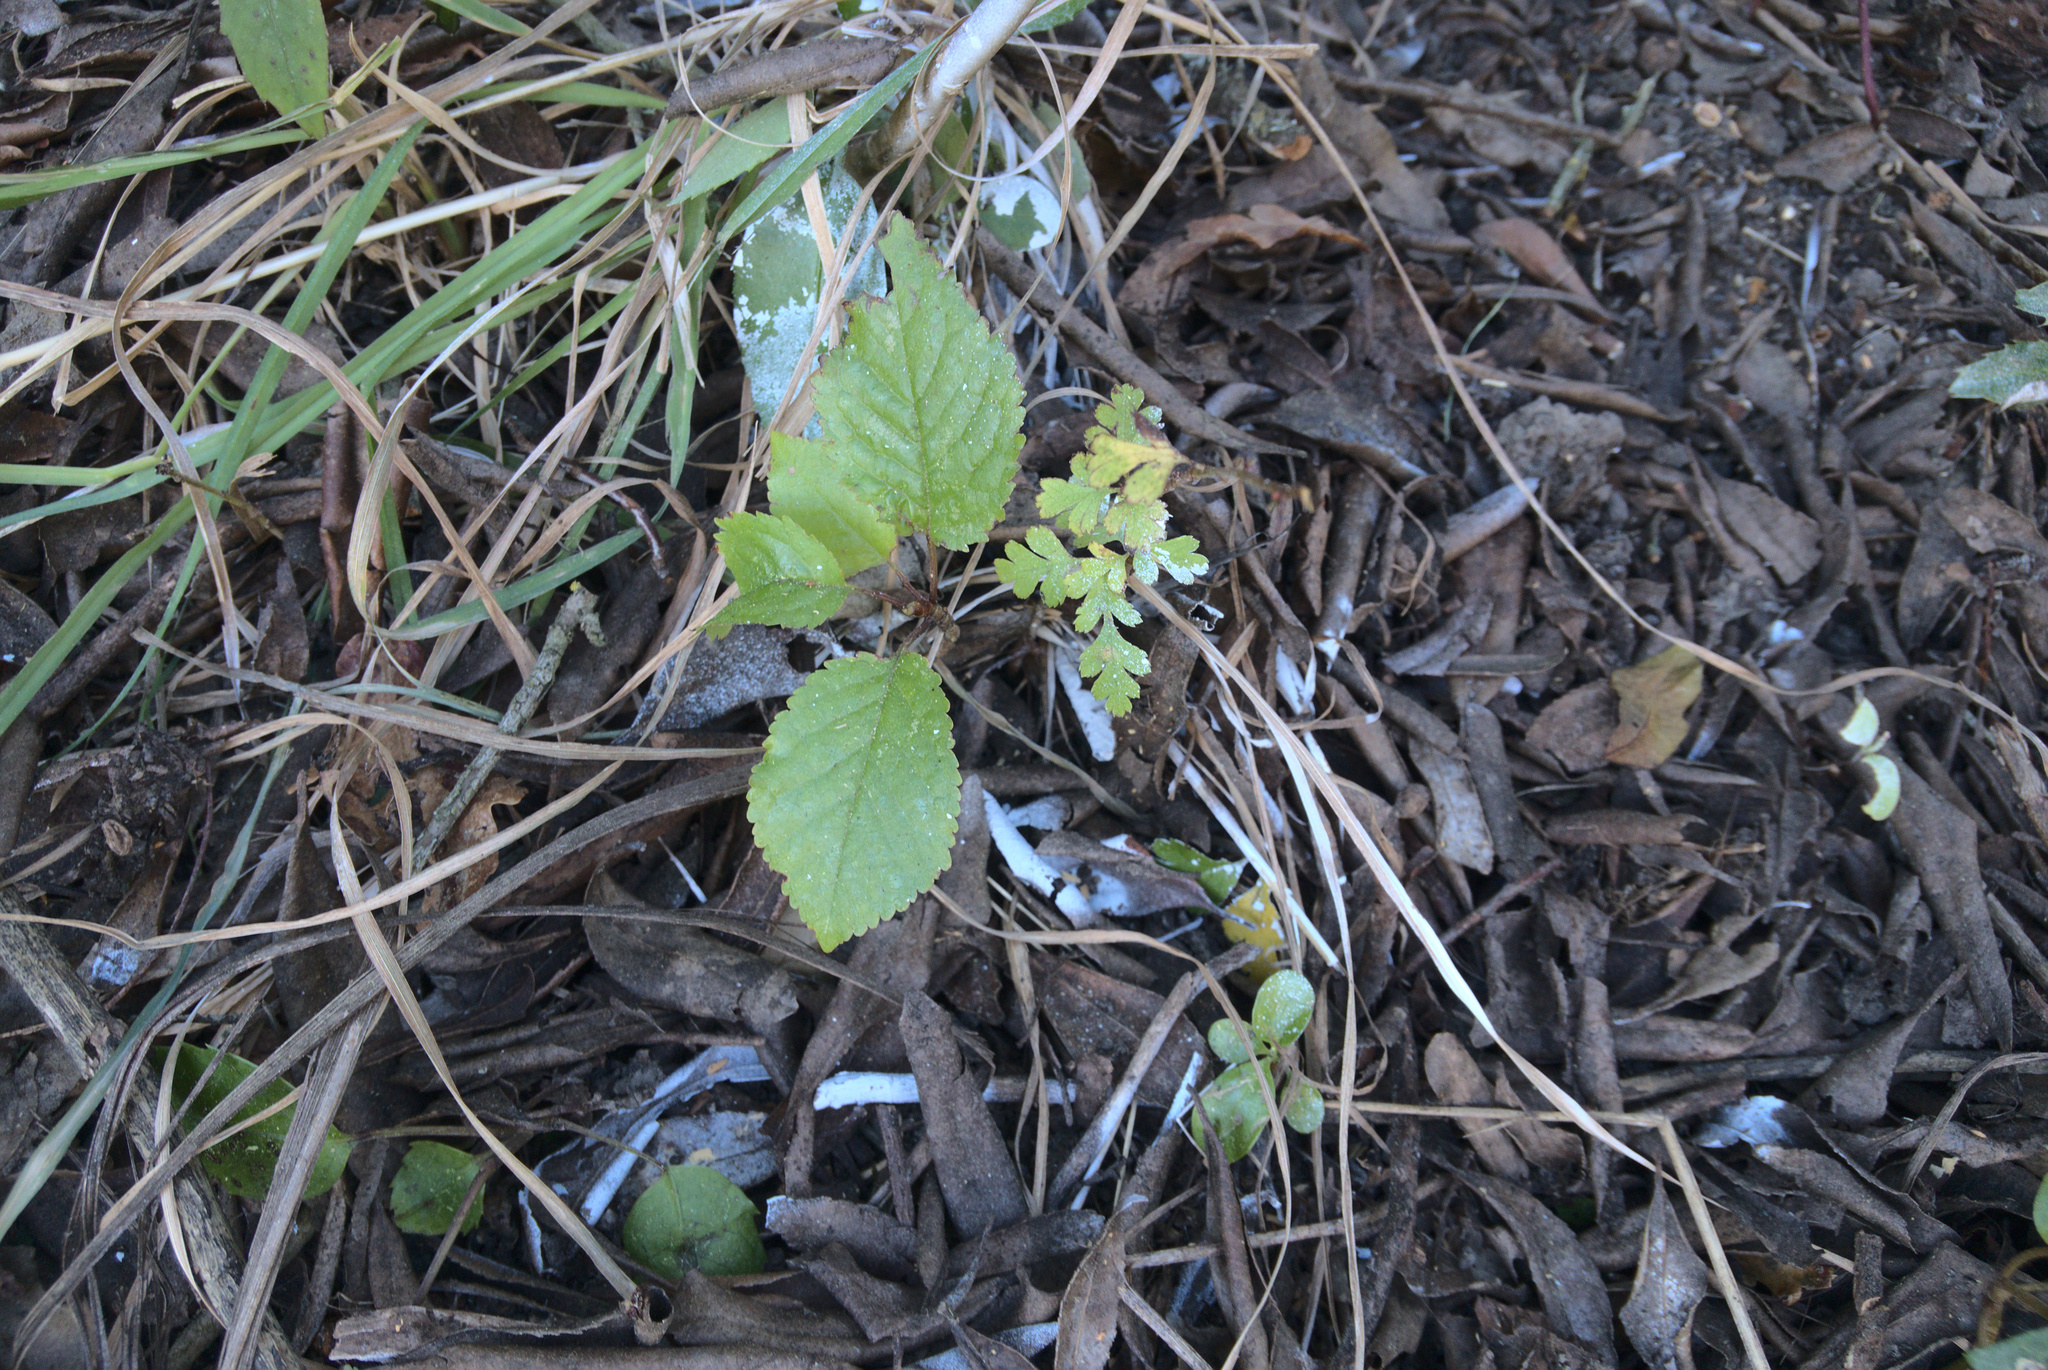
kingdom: Plantae
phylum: Tracheophyta
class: Magnoliopsida
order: Rosales
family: Rosaceae
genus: Crataegus
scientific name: Crataegus monogyna
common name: Hawthorn
